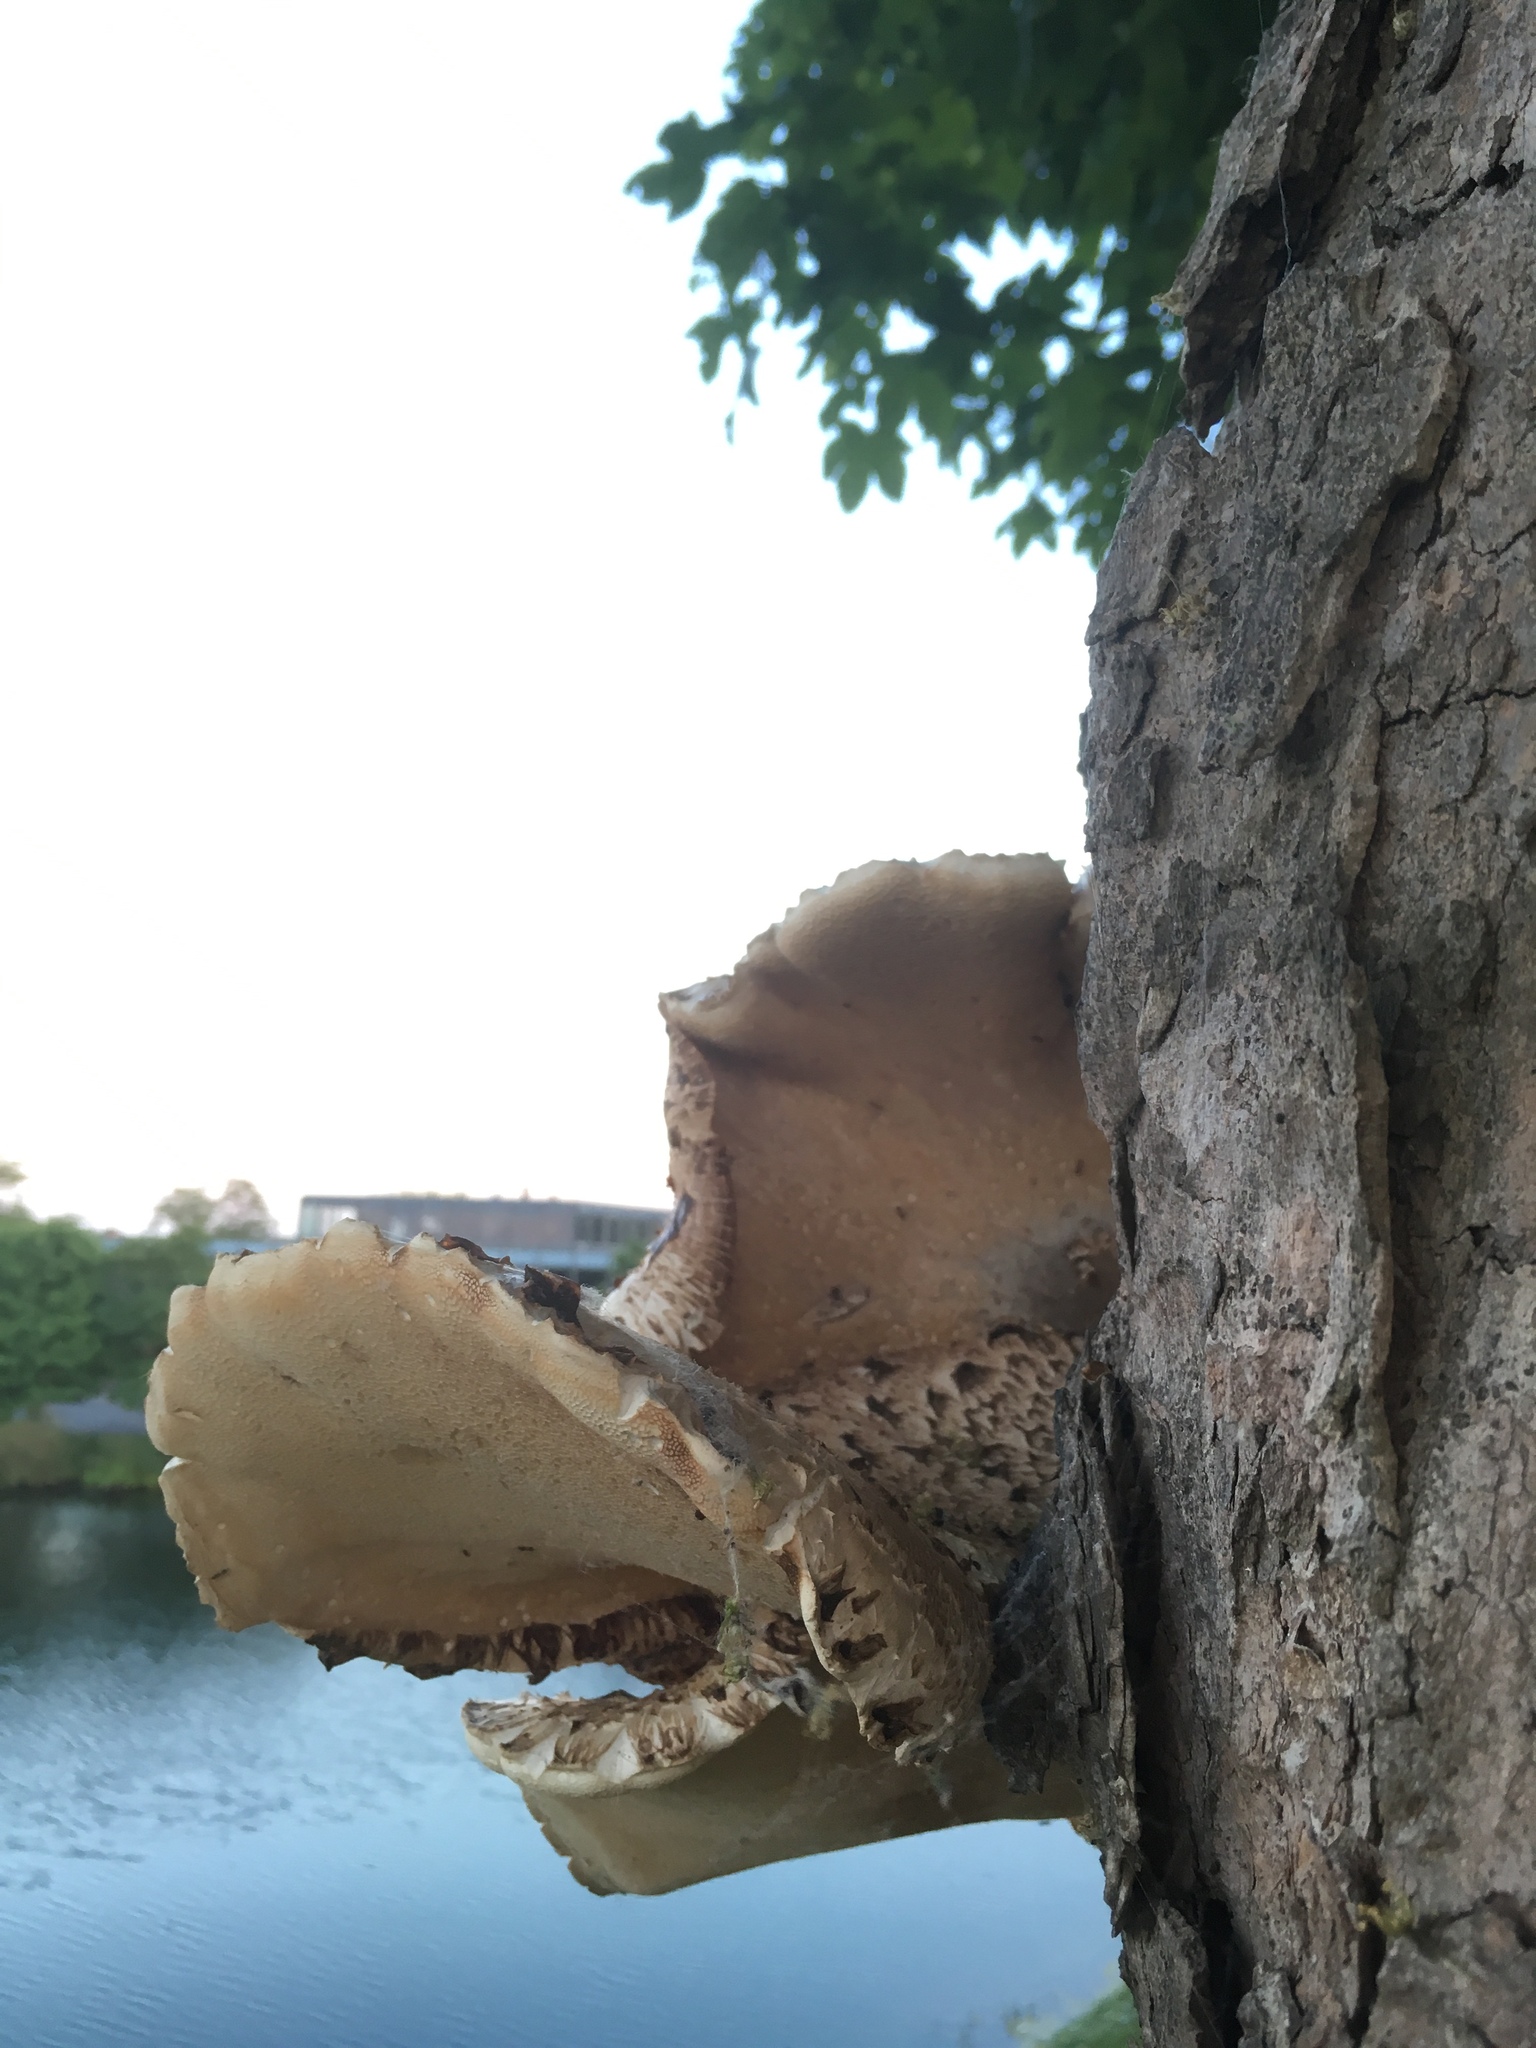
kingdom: Fungi
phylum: Basidiomycota
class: Agaricomycetes
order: Polyporales
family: Polyporaceae
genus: Cerioporus
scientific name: Cerioporus squamosus
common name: Dryad's saddle
